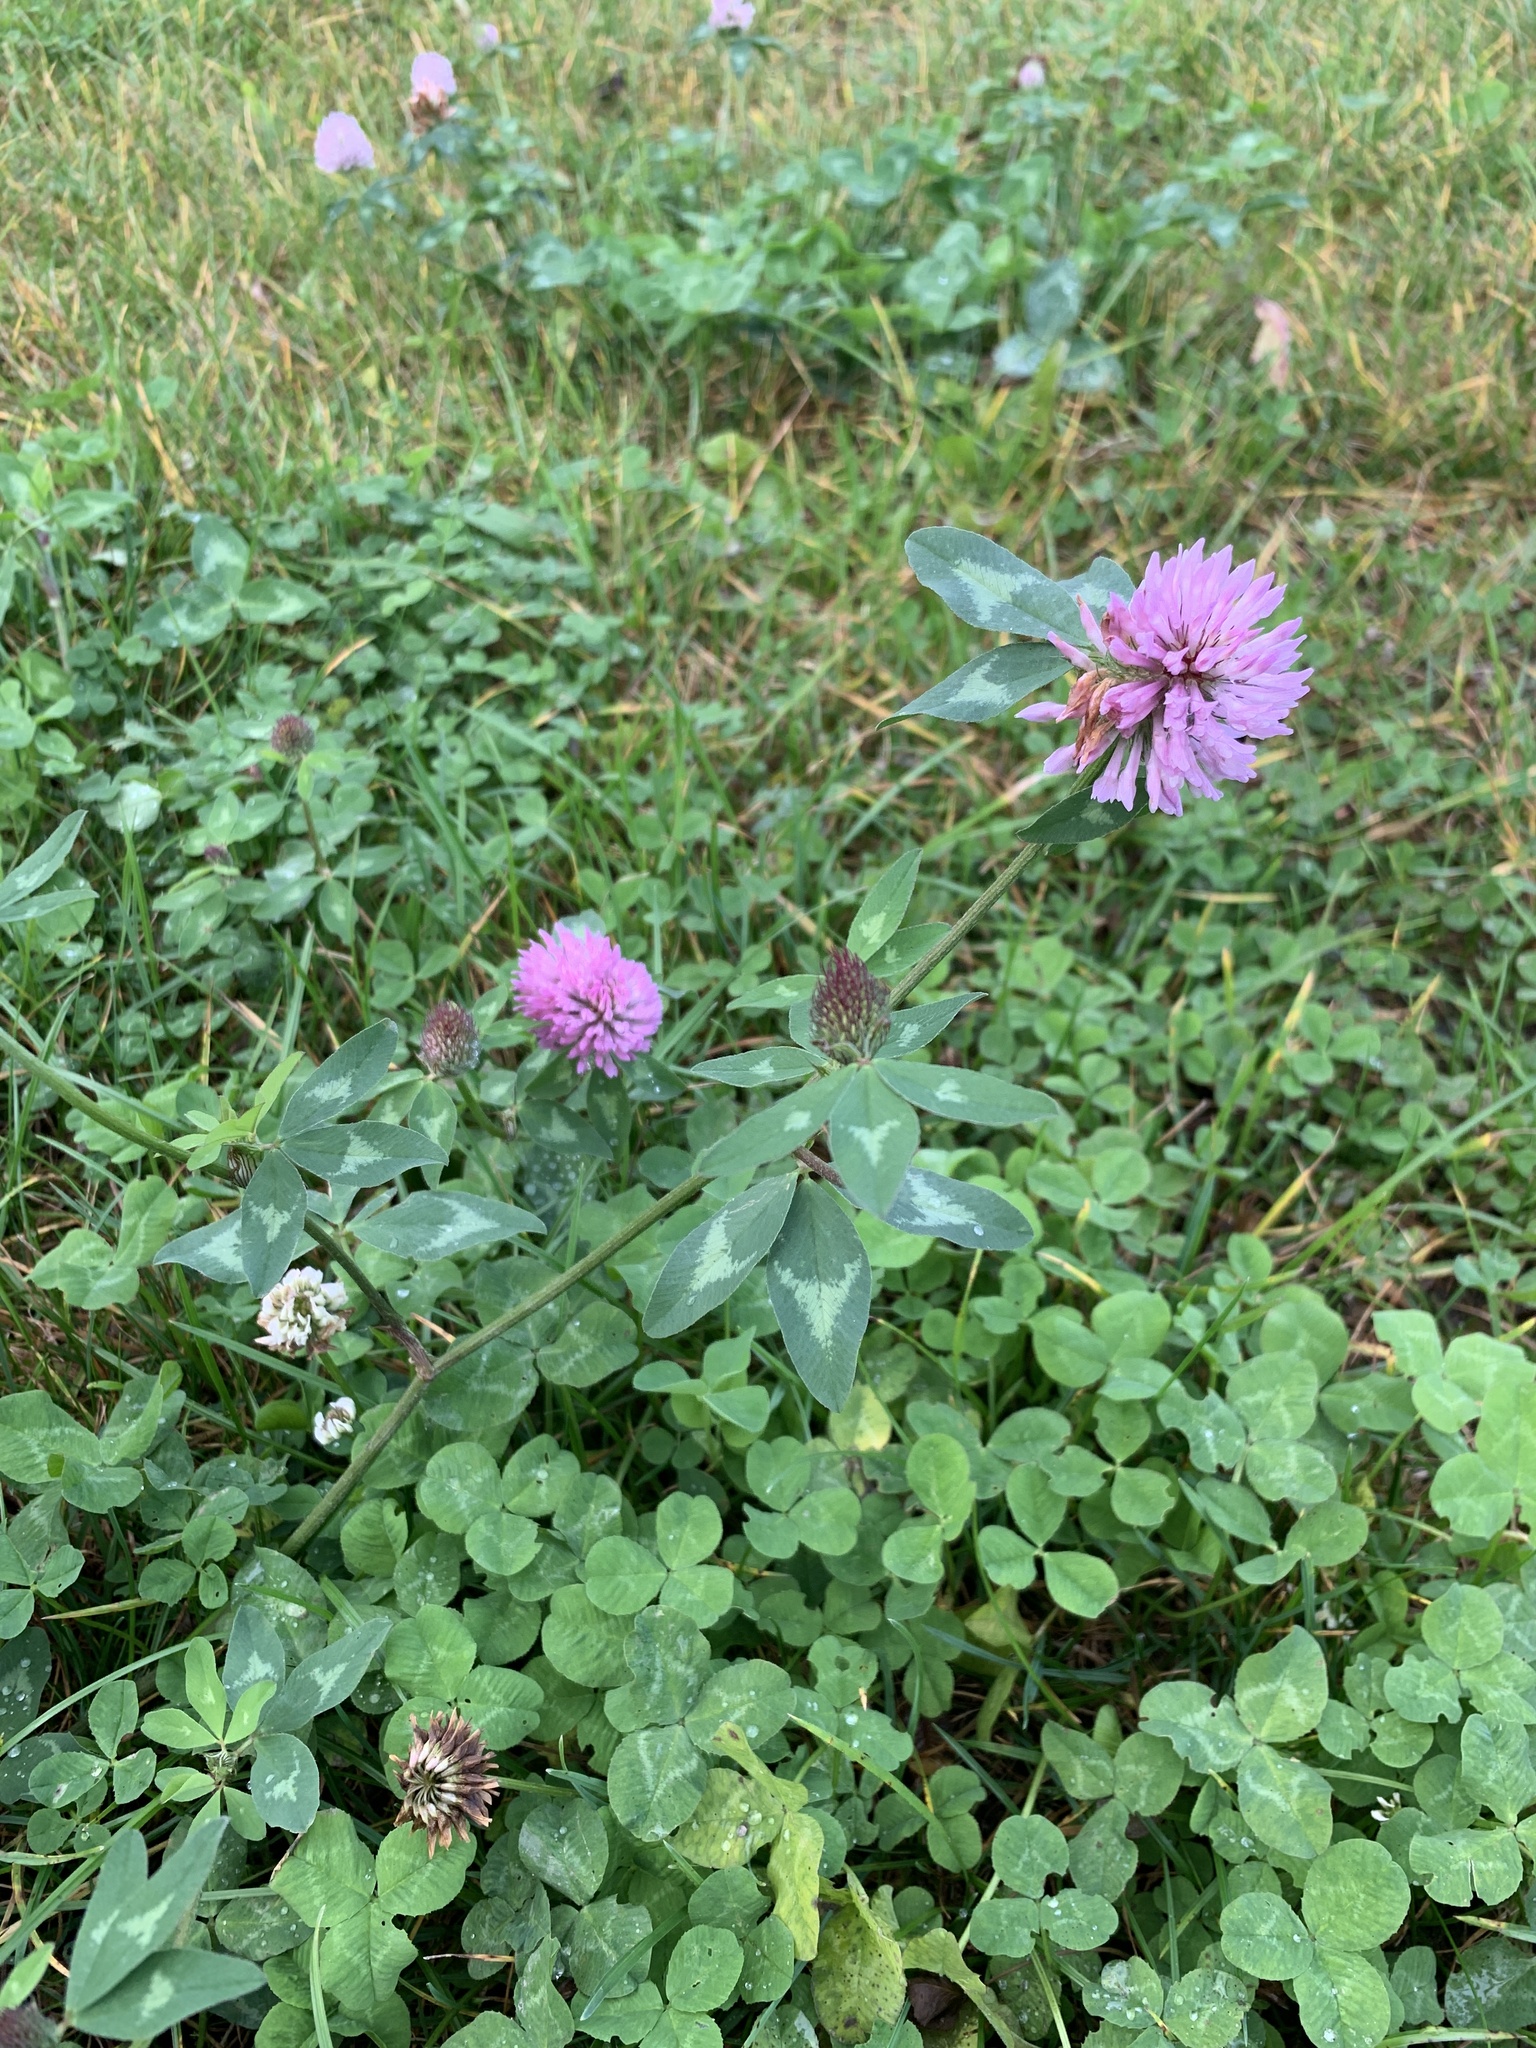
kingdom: Plantae
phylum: Tracheophyta
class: Magnoliopsida
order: Fabales
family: Fabaceae
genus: Trifolium
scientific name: Trifolium pratense
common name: Red clover
